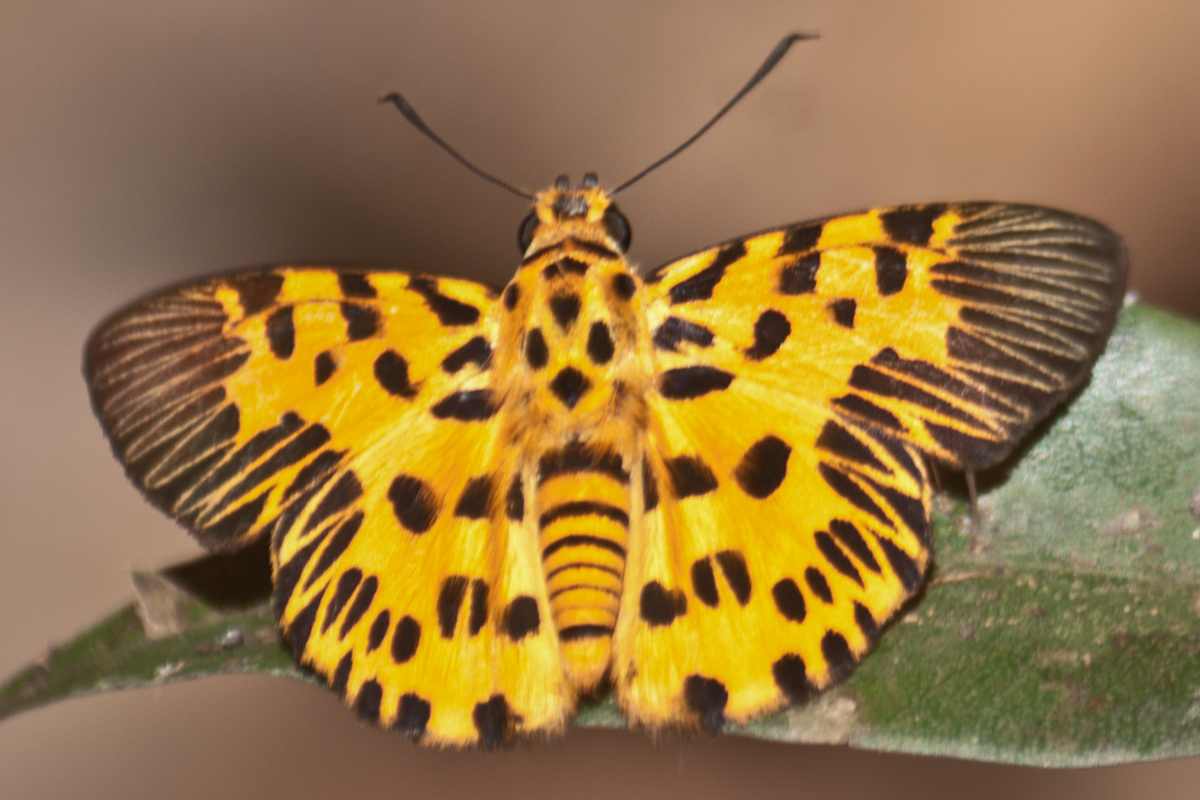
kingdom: Animalia
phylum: Arthropoda
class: Insecta
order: Lepidoptera
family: Hesperiidae
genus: Odina
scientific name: Odina decoratus
